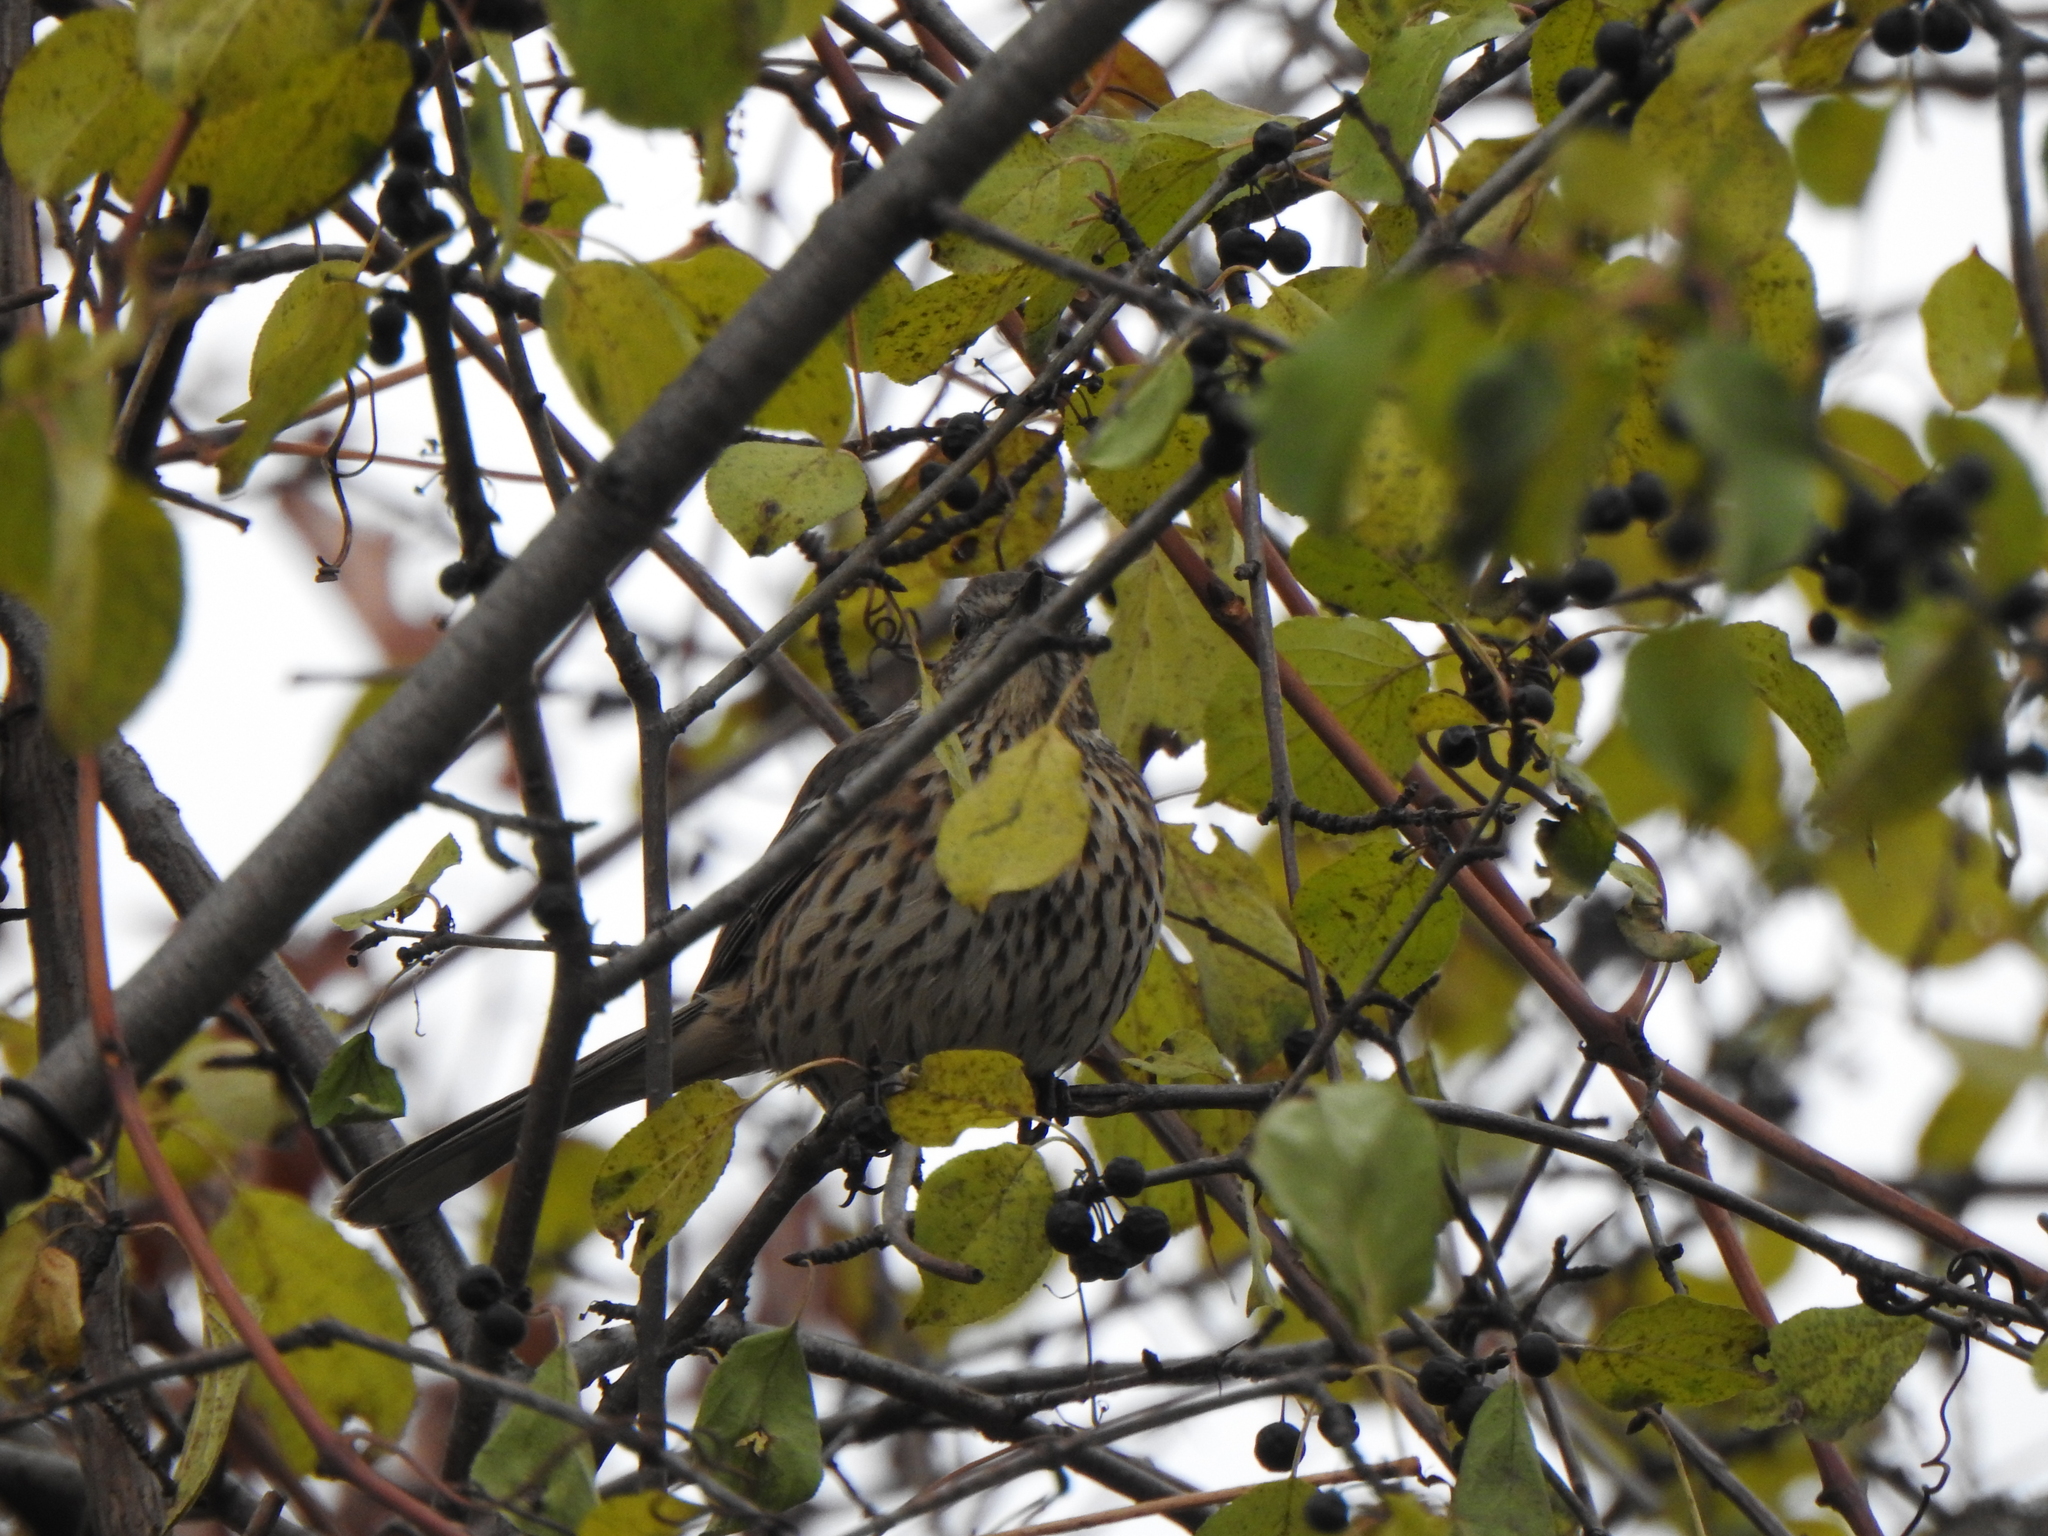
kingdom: Animalia
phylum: Chordata
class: Aves
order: Passeriformes
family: Mimidae
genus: Oreoscoptes
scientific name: Oreoscoptes montanus
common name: Sage thrasher
